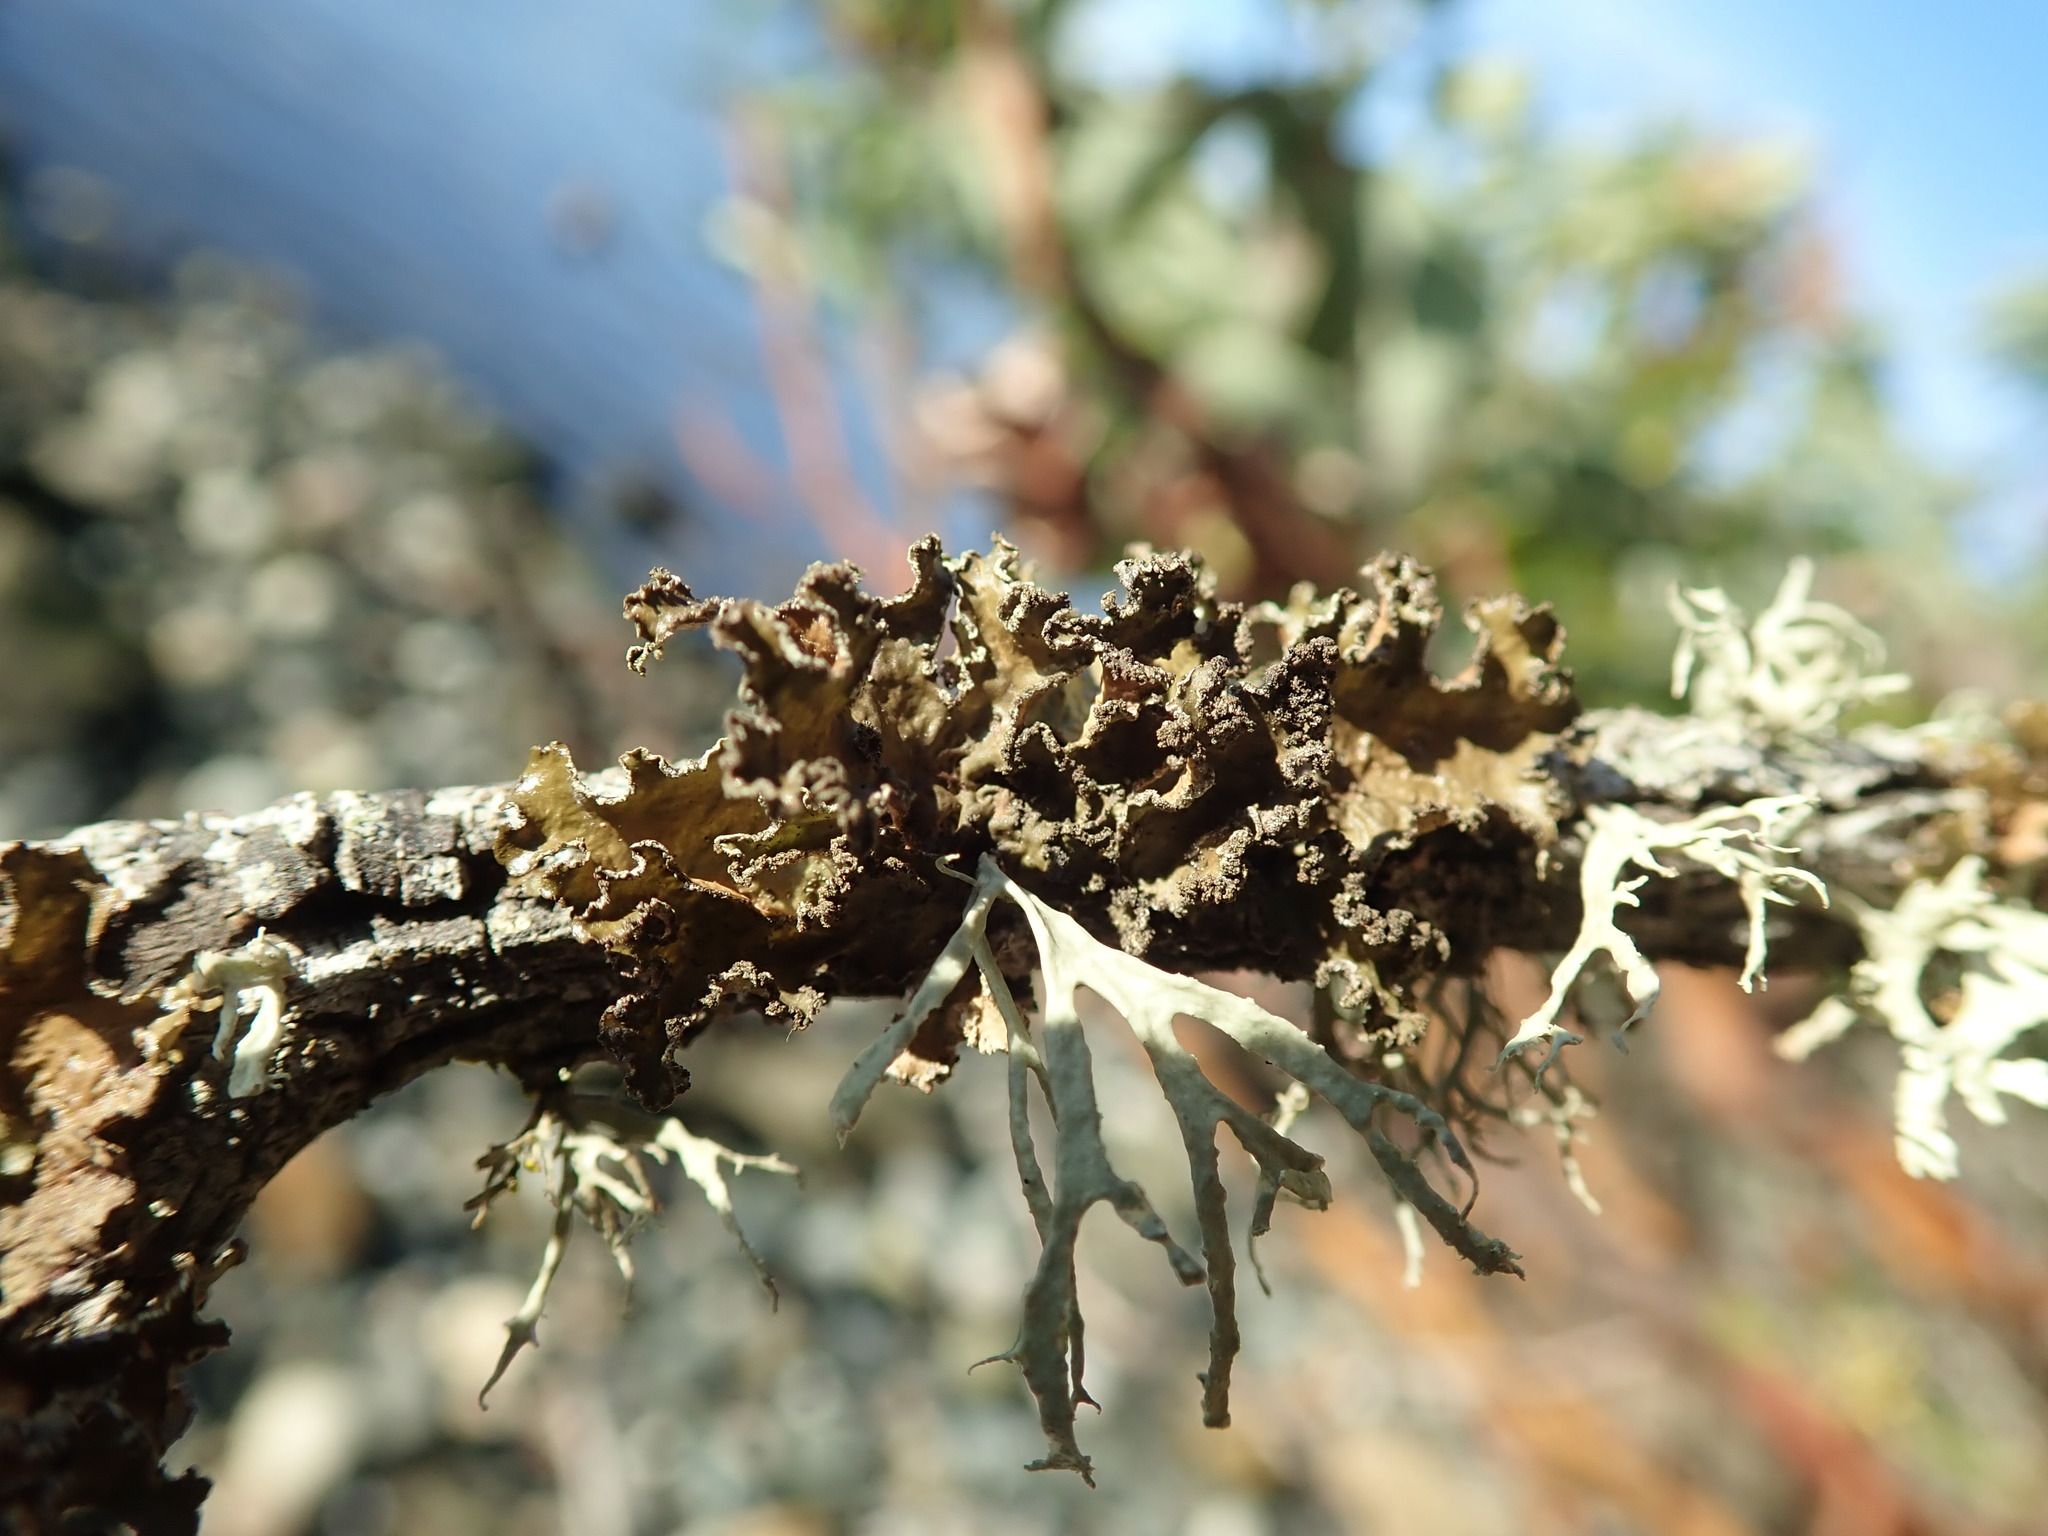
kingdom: Fungi
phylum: Ascomycota
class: Lecanoromycetes
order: Lecanorales
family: Parmeliaceae
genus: Nephromopsis
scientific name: Nephromopsis chlorophylla
